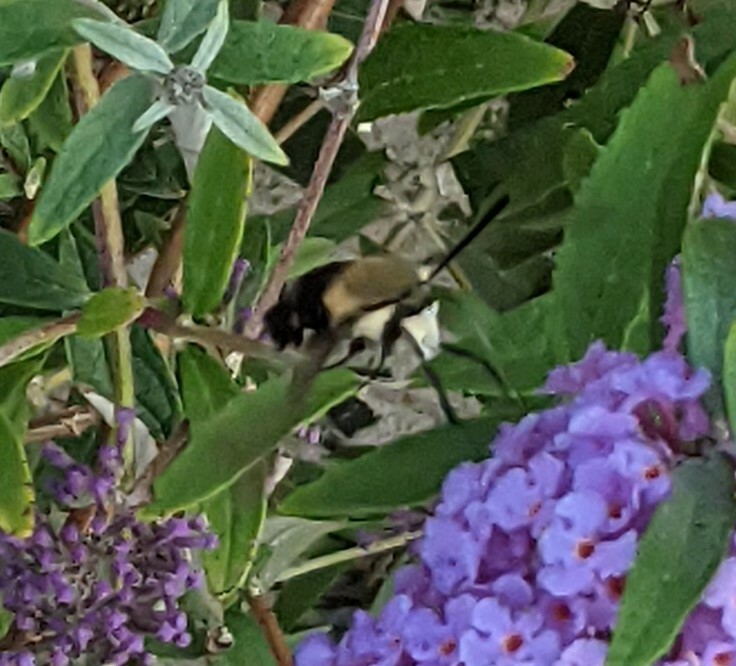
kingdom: Animalia
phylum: Arthropoda
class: Insecta
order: Lepidoptera
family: Sphingidae
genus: Hemaris
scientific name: Hemaris diffinis
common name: Bumblebee moth
